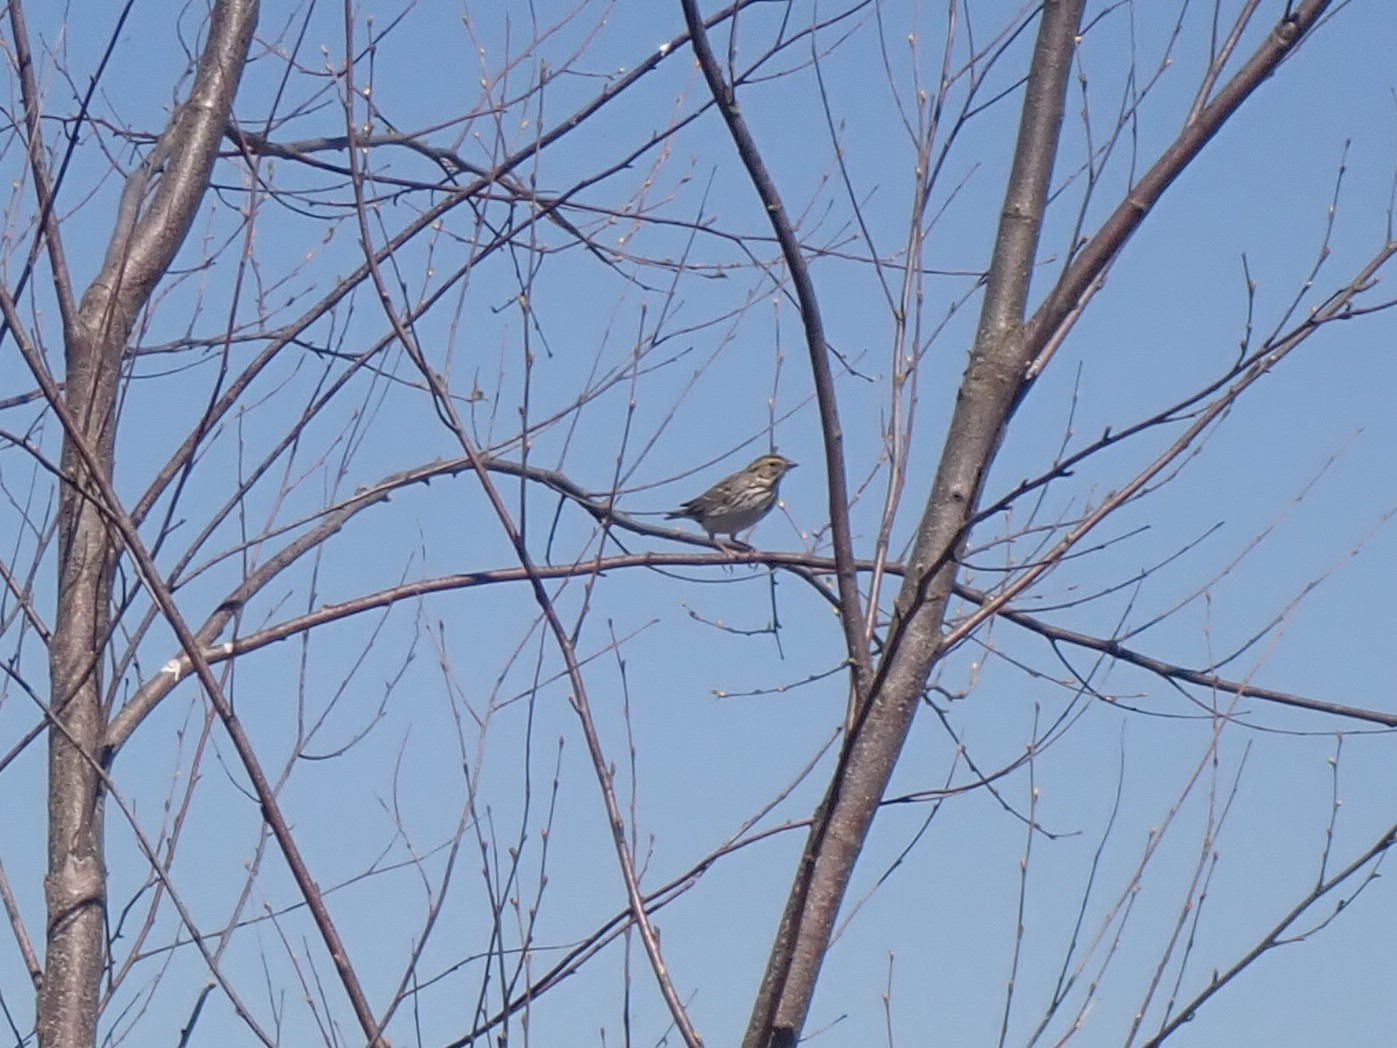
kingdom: Animalia
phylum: Chordata
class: Aves
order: Passeriformes
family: Passerellidae
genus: Passerculus
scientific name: Passerculus sandwichensis
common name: Savannah sparrow
